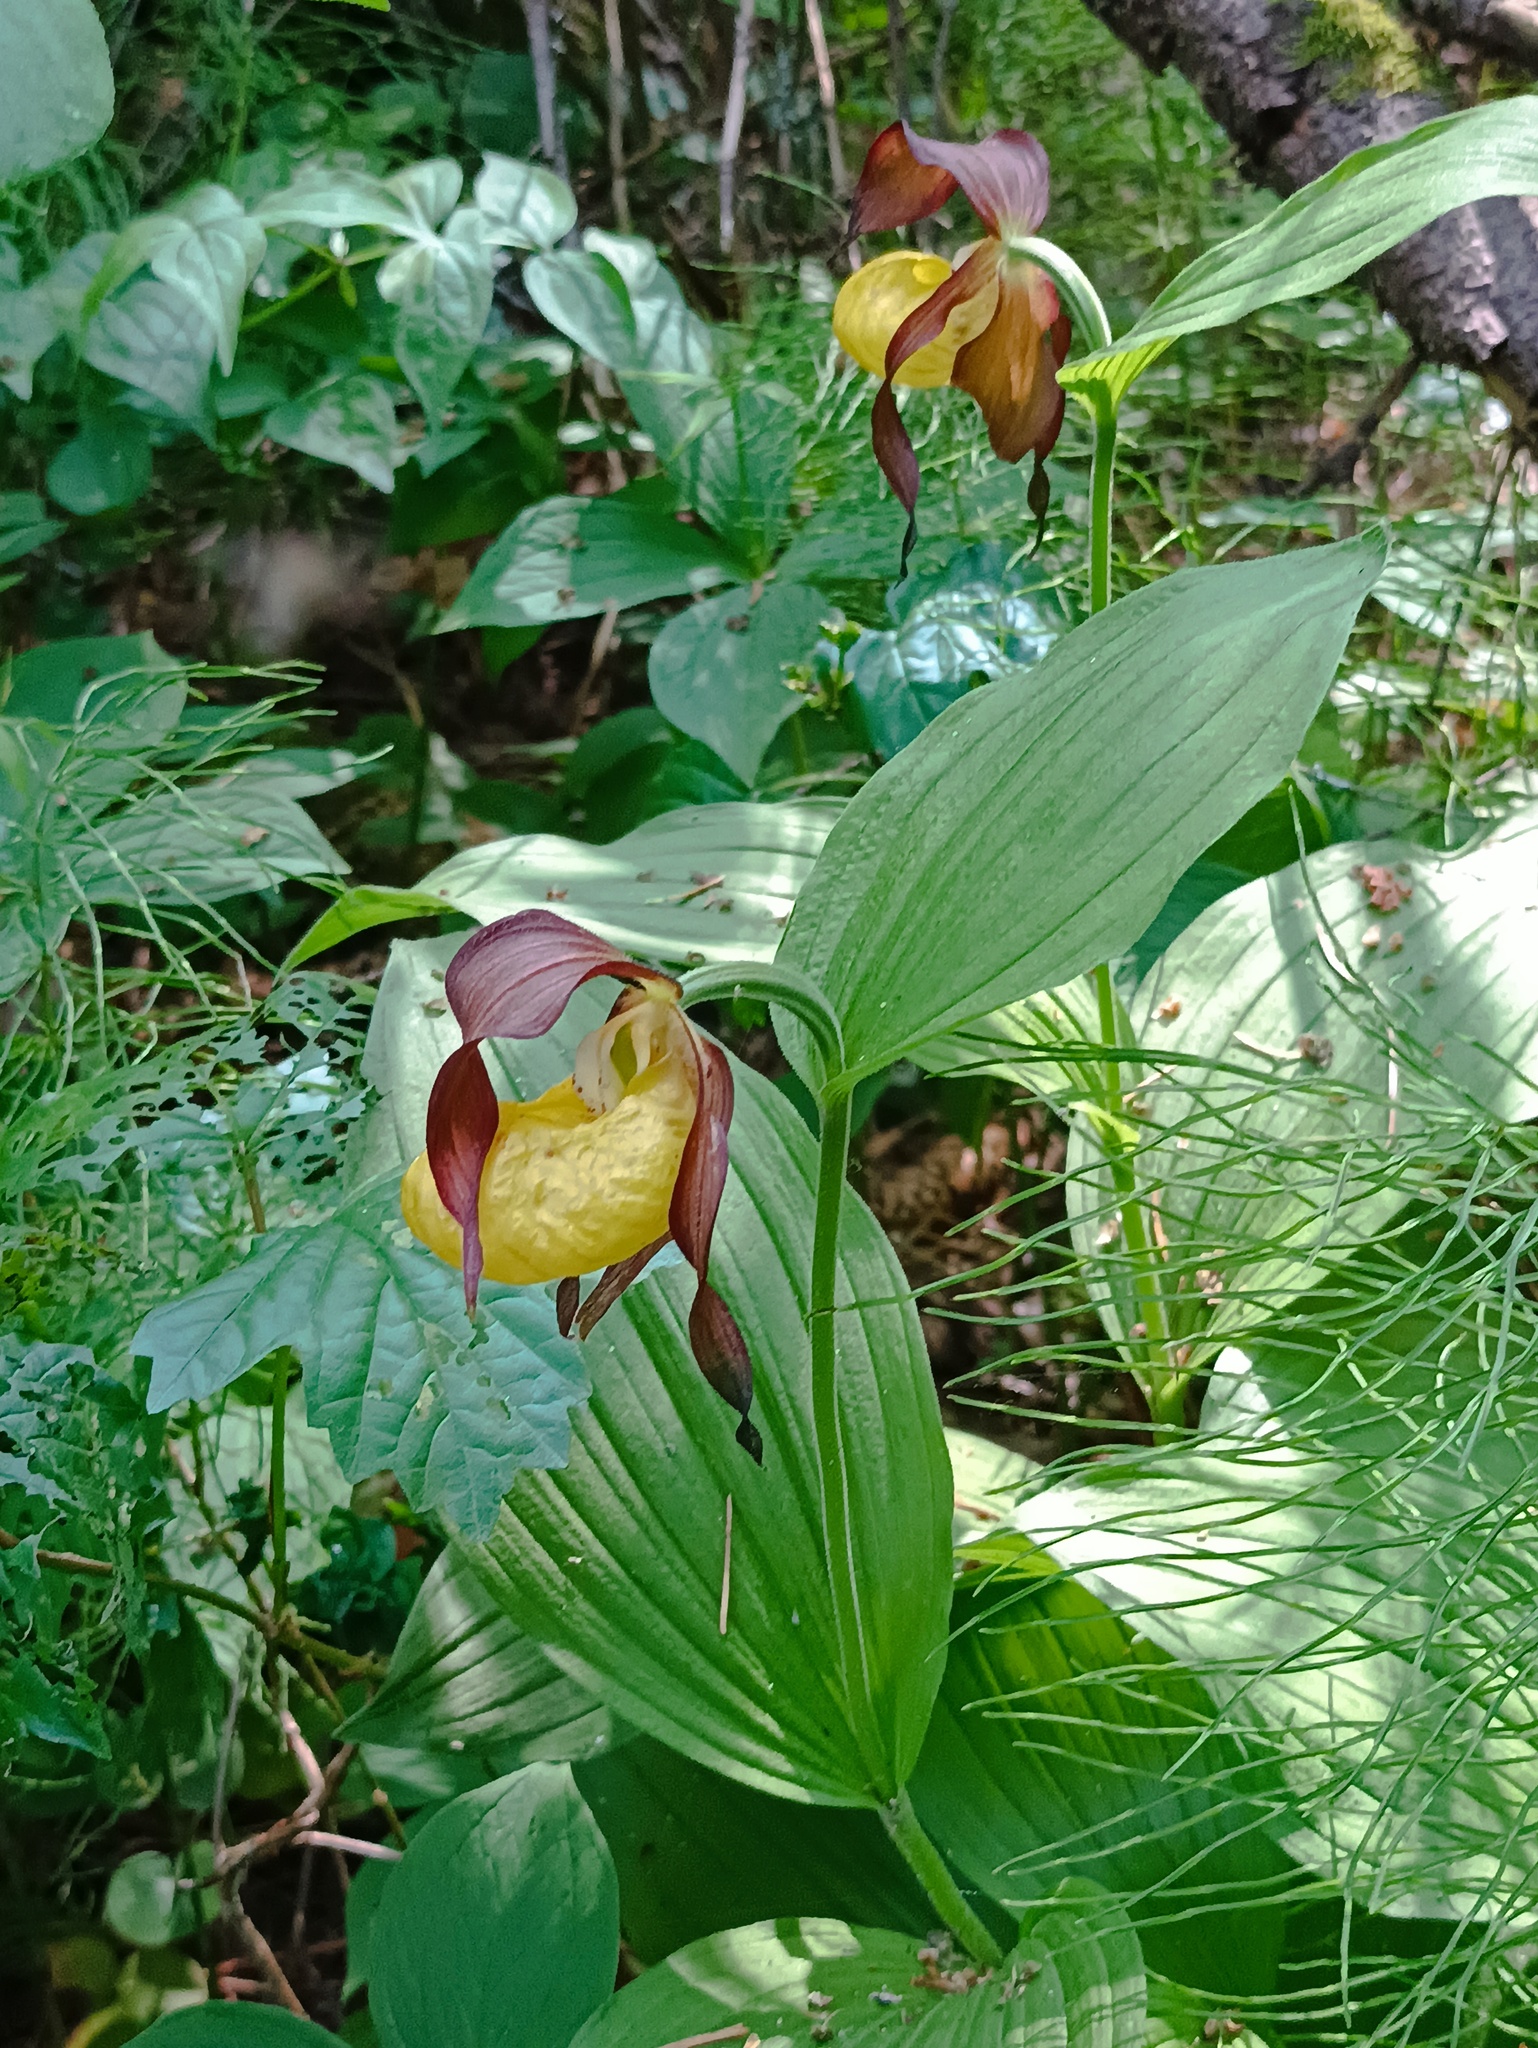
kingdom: Plantae
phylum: Tracheophyta
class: Liliopsida
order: Asparagales
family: Orchidaceae
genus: Cypripedium
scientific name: Cypripedium calceolus
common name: Lady's-slipper
